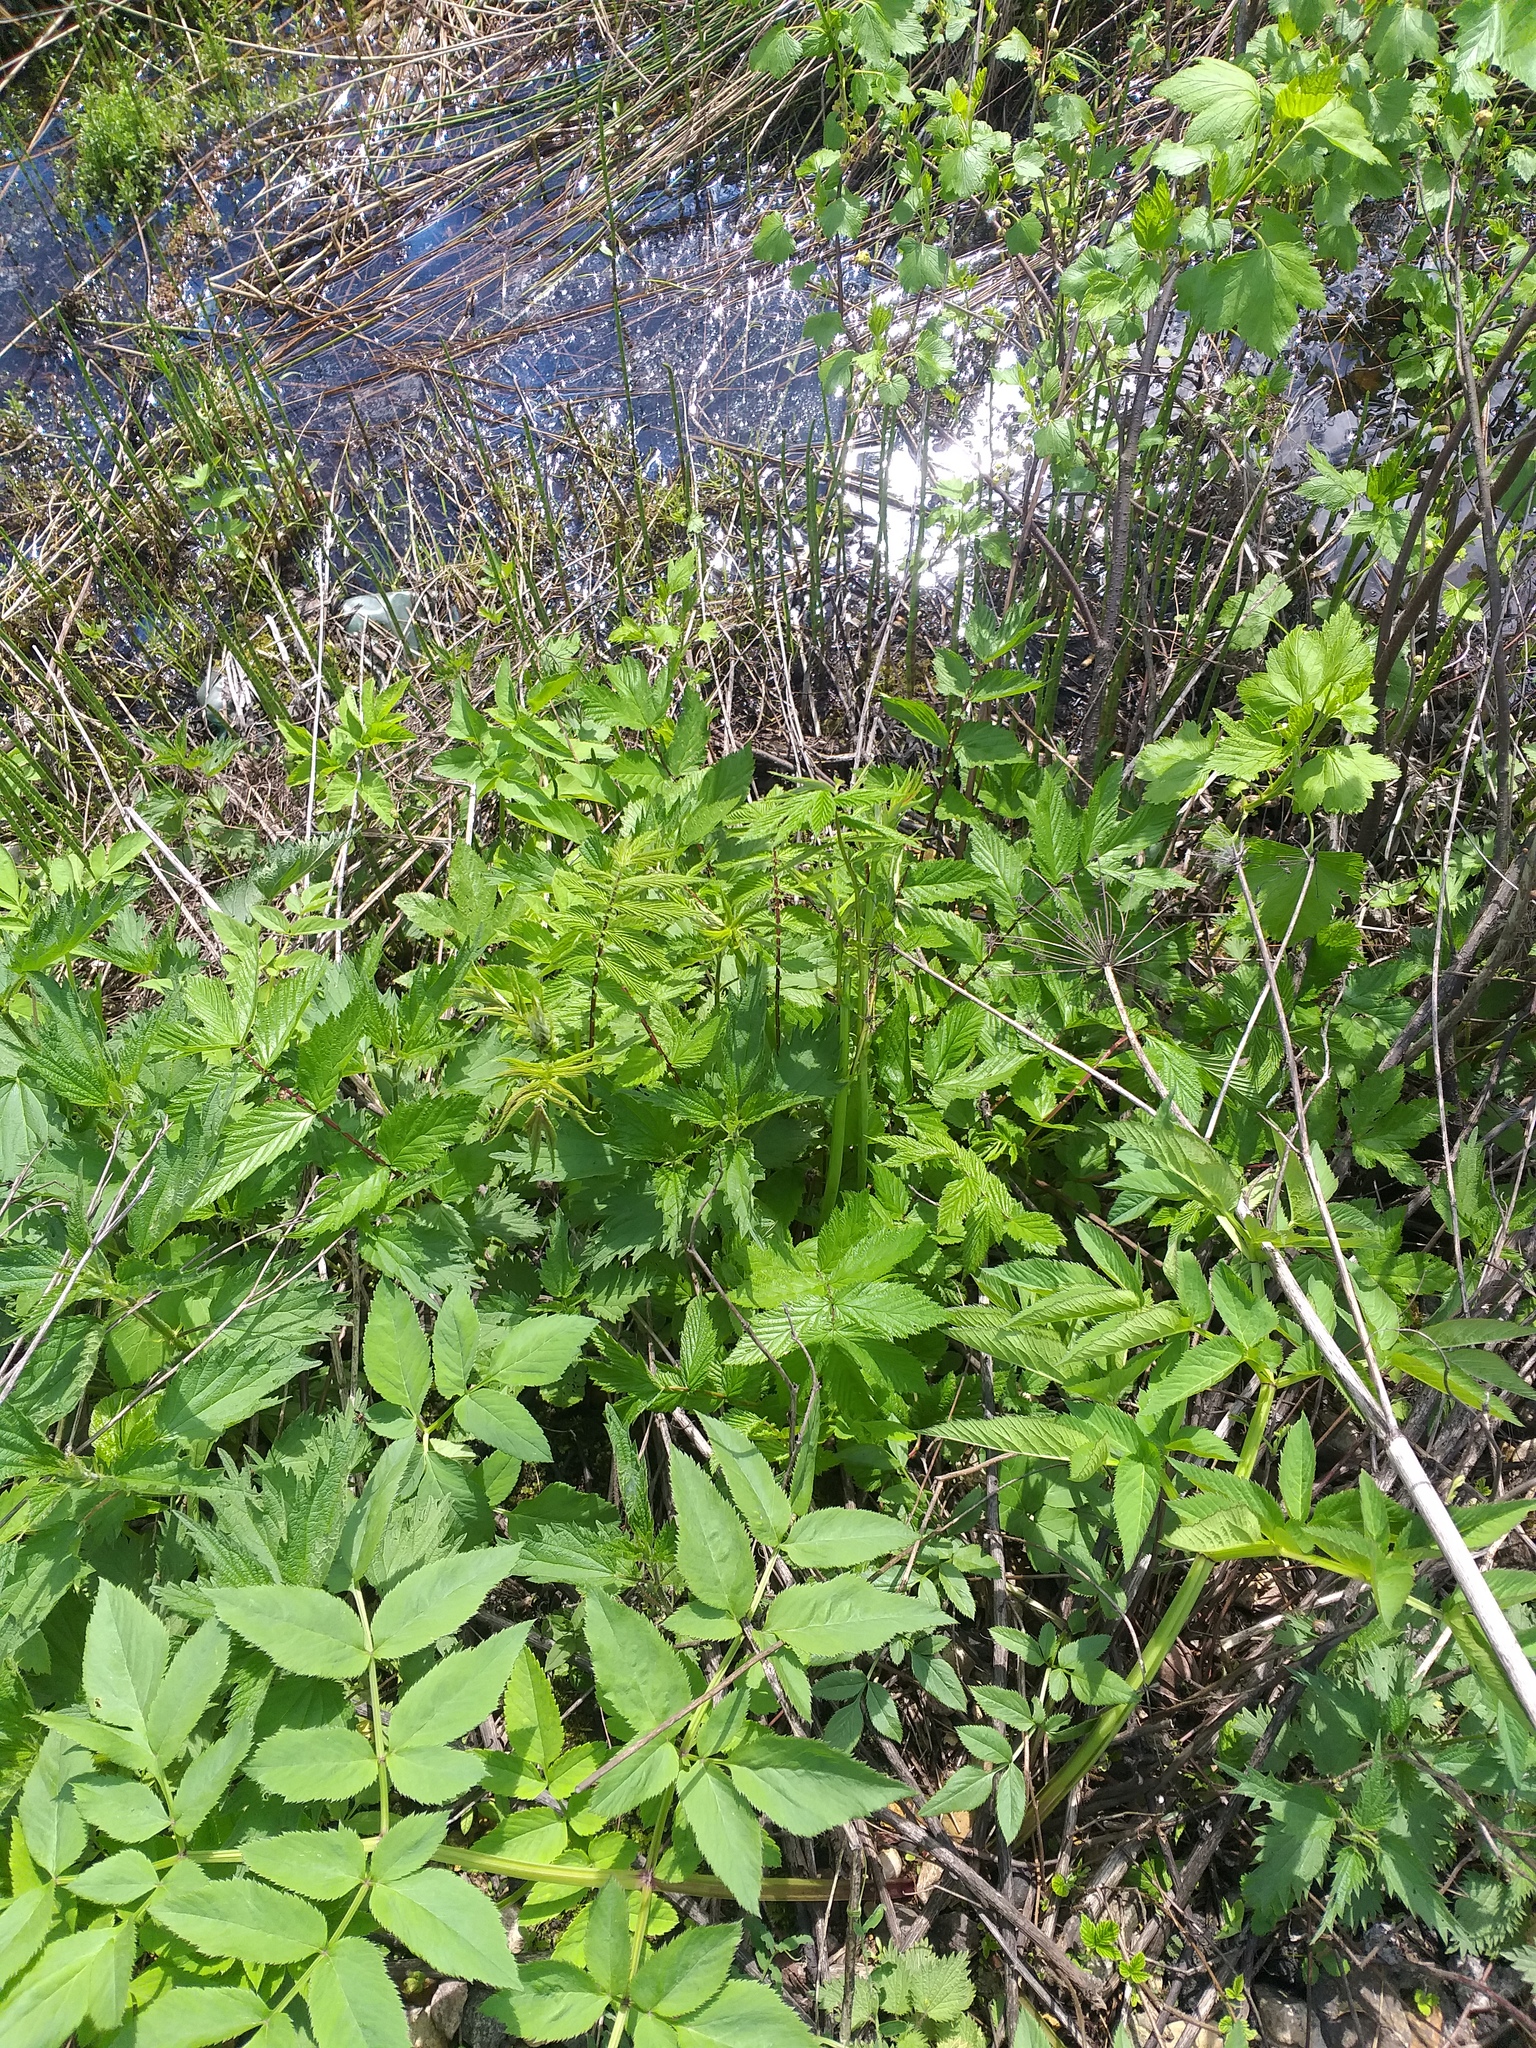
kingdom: Plantae
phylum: Tracheophyta
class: Magnoliopsida
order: Rosales
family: Rosaceae
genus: Filipendula
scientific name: Filipendula ulmaria
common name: Meadowsweet
